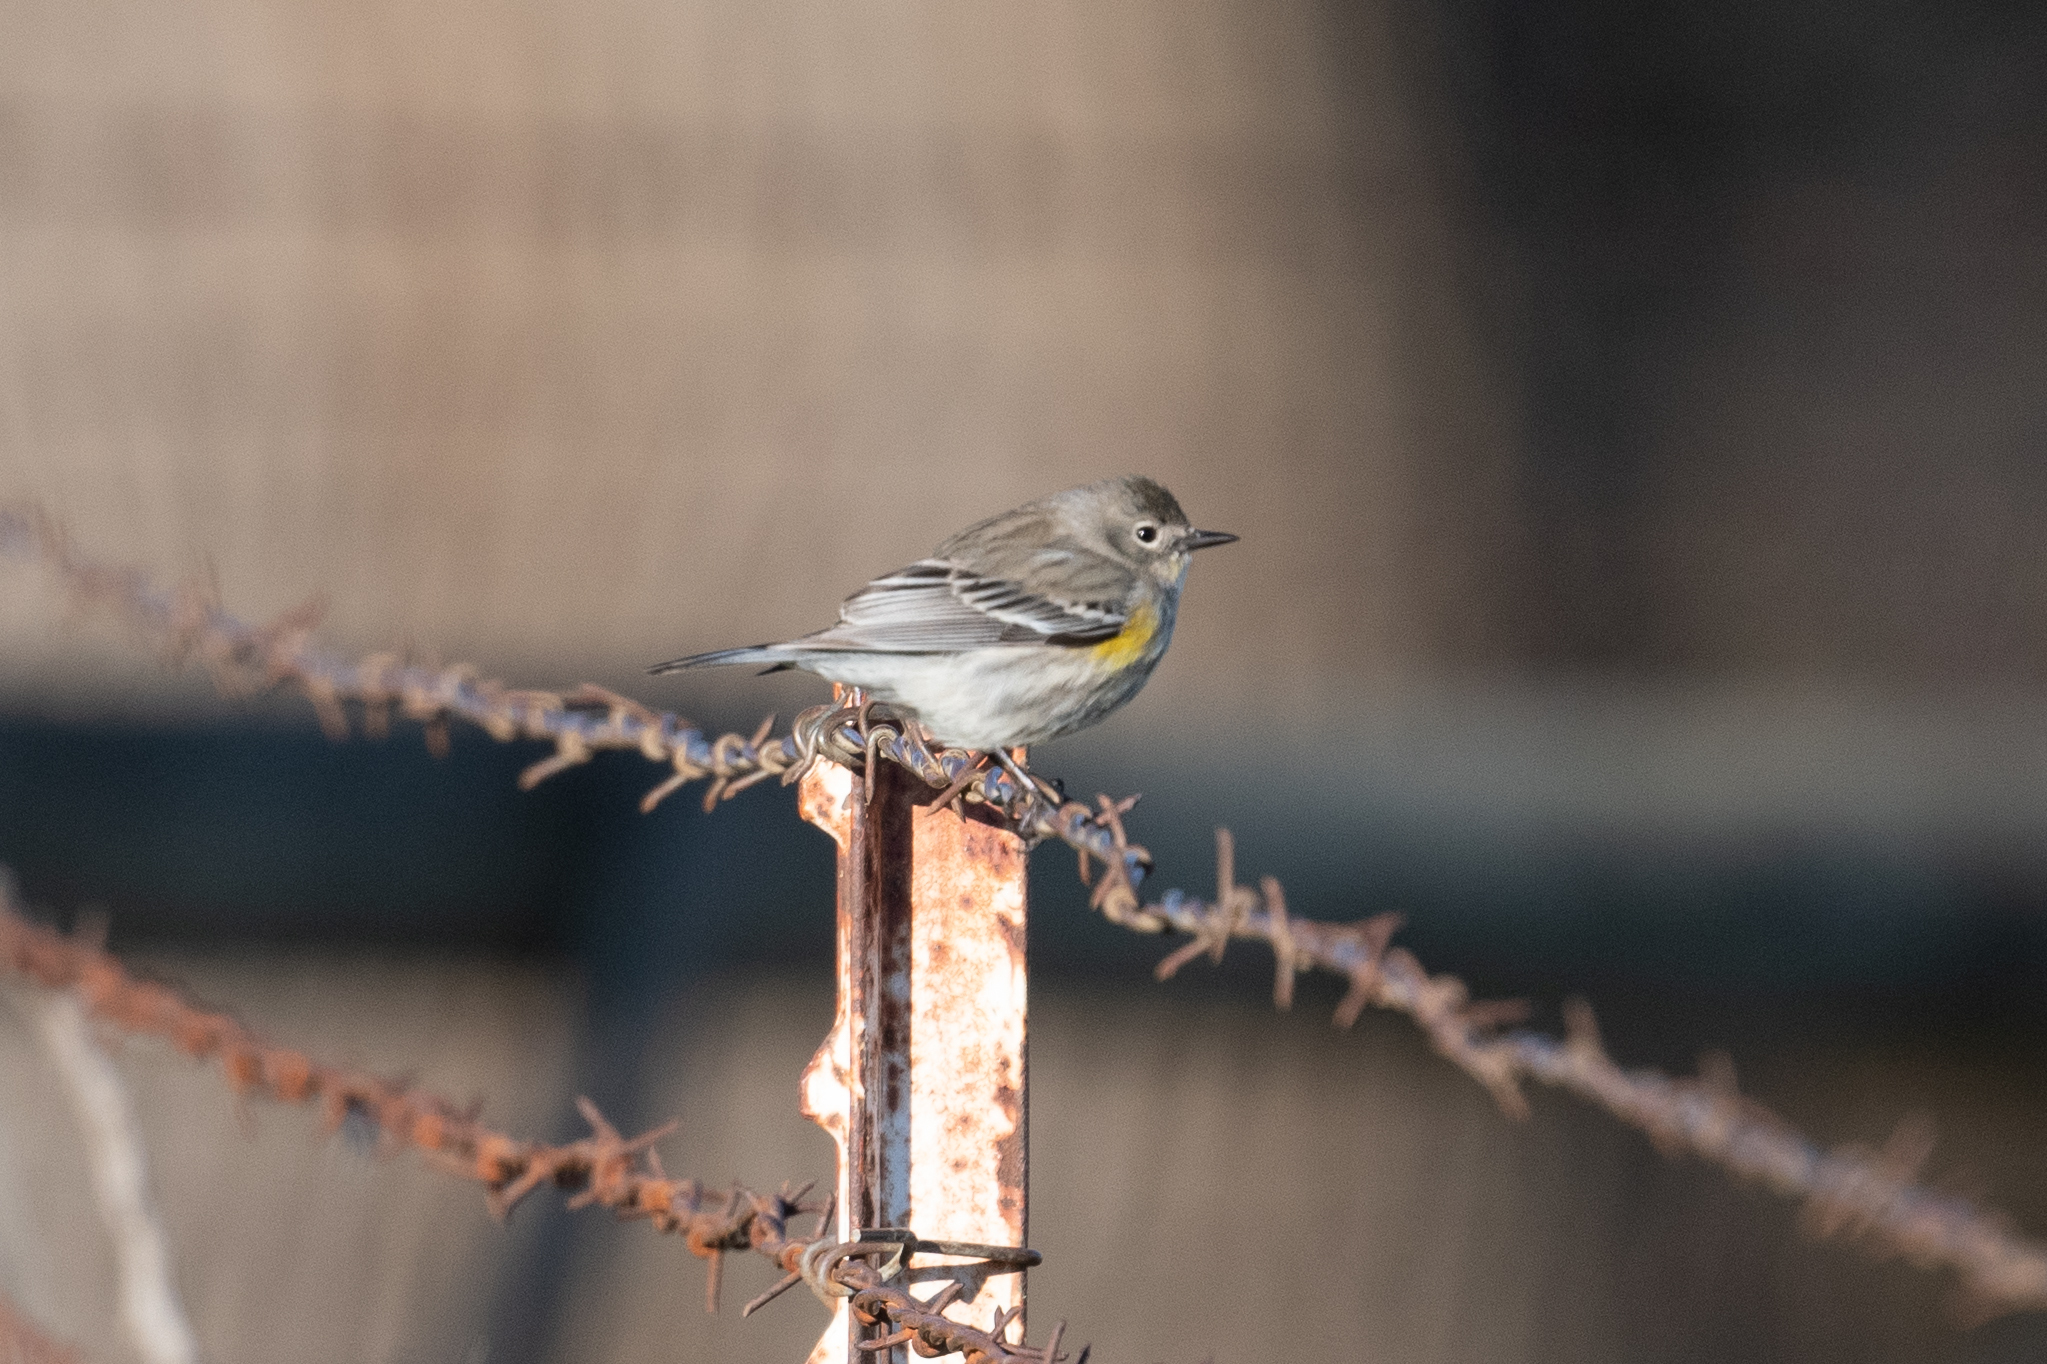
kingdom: Animalia
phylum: Chordata
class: Aves
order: Passeriformes
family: Parulidae
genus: Setophaga
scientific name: Setophaga coronata
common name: Myrtle warbler
